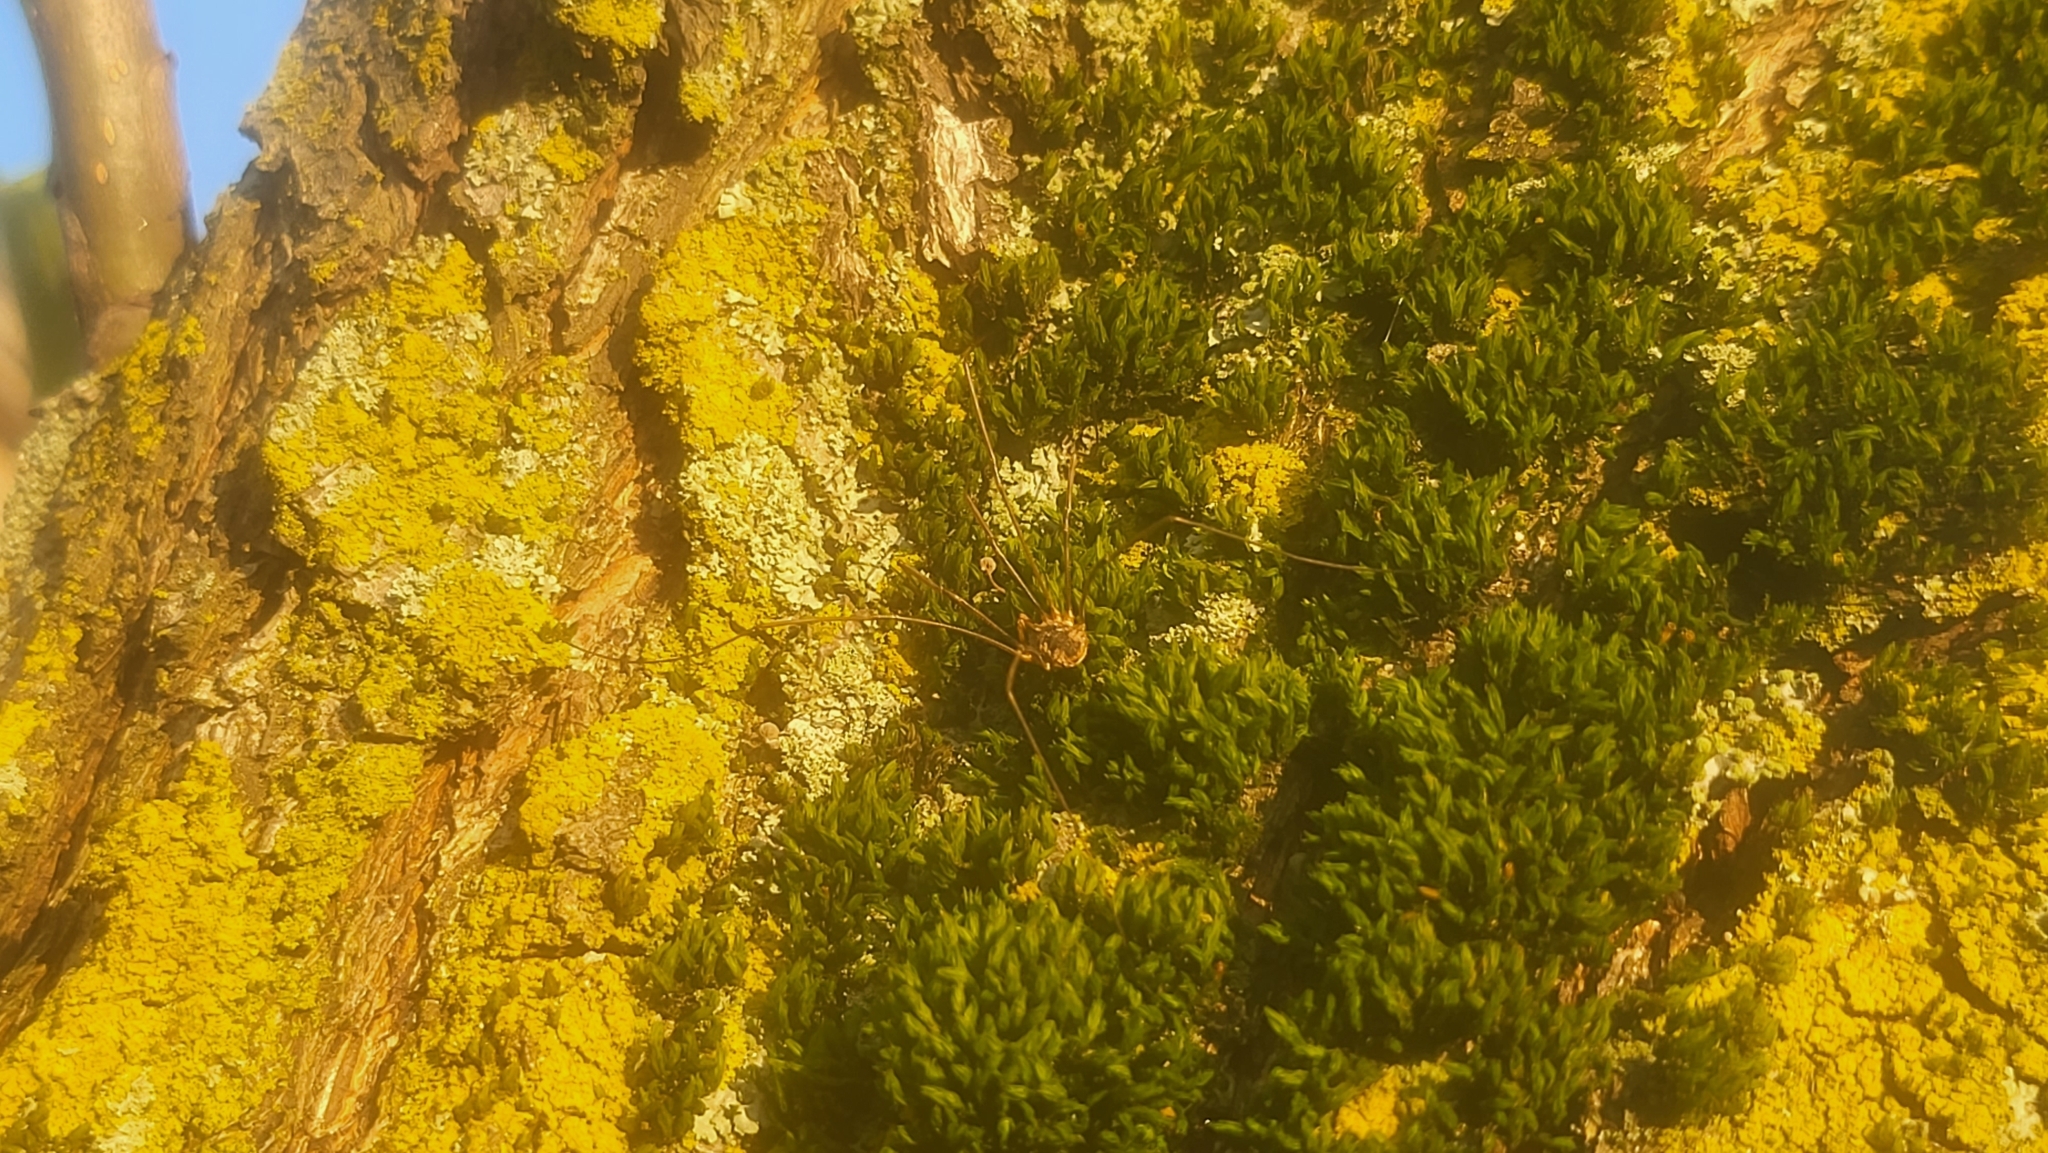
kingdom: Animalia
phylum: Arthropoda
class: Arachnida
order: Opiliones
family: Phalangiidae
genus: Phalangium
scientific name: Phalangium opilio
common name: Daddy longleg
